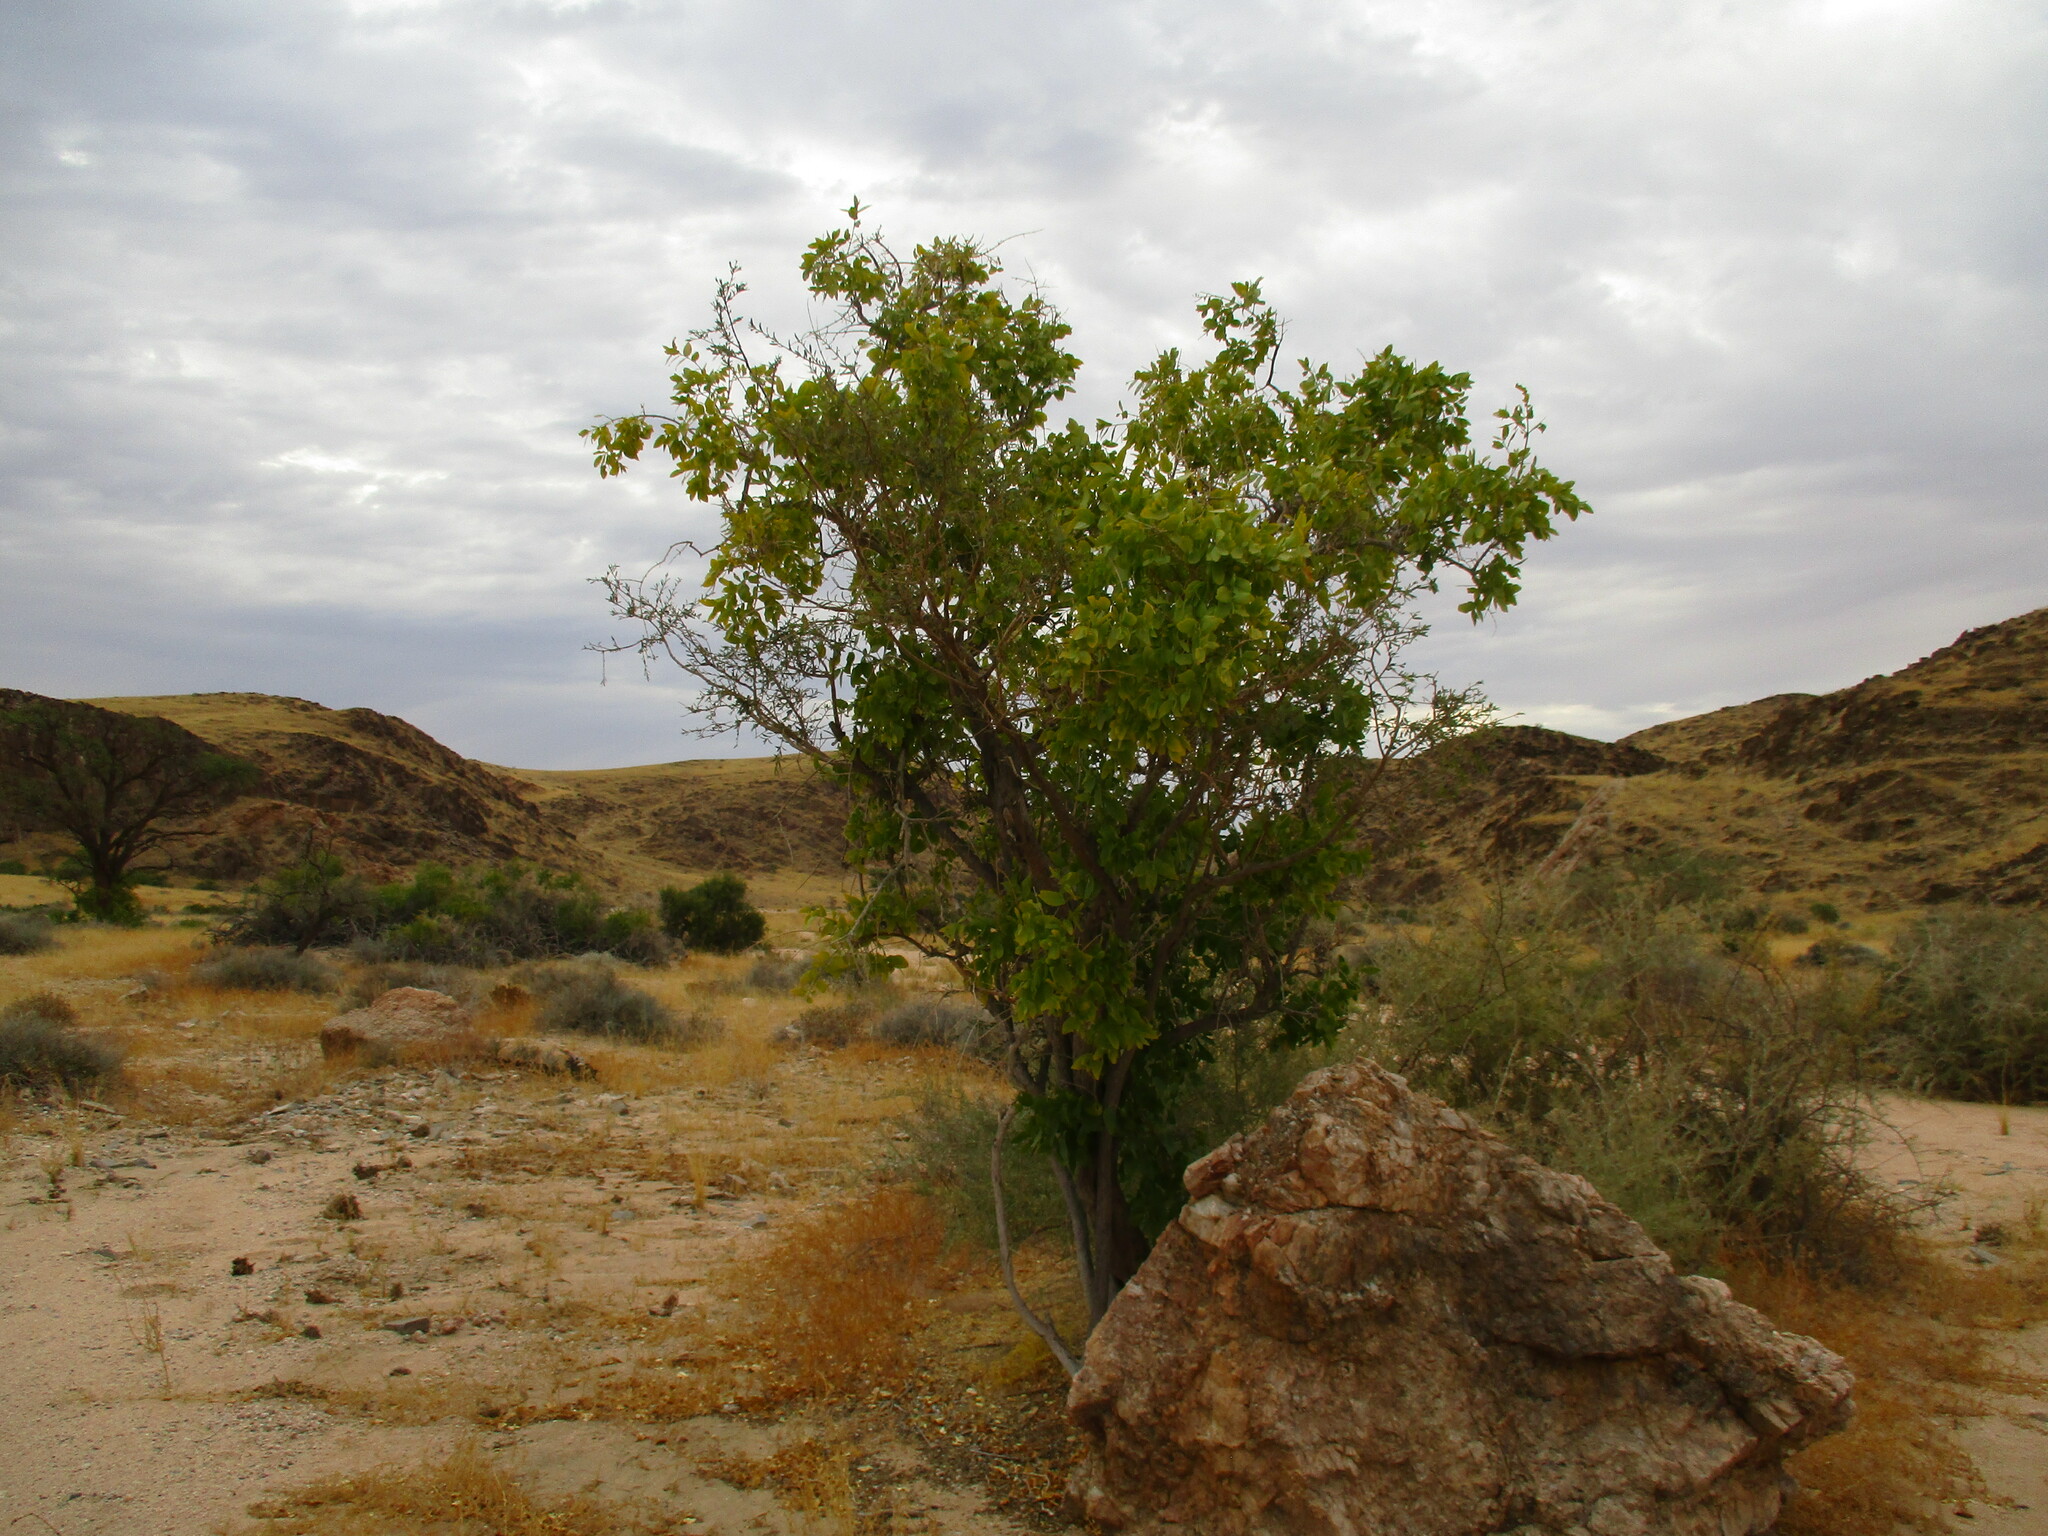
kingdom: Plantae
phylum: Tracheophyta
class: Magnoliopsida
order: Brassicales
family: Salvadoraceae
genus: Salvadora
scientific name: Salvadora persica
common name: Toothbrushtree
